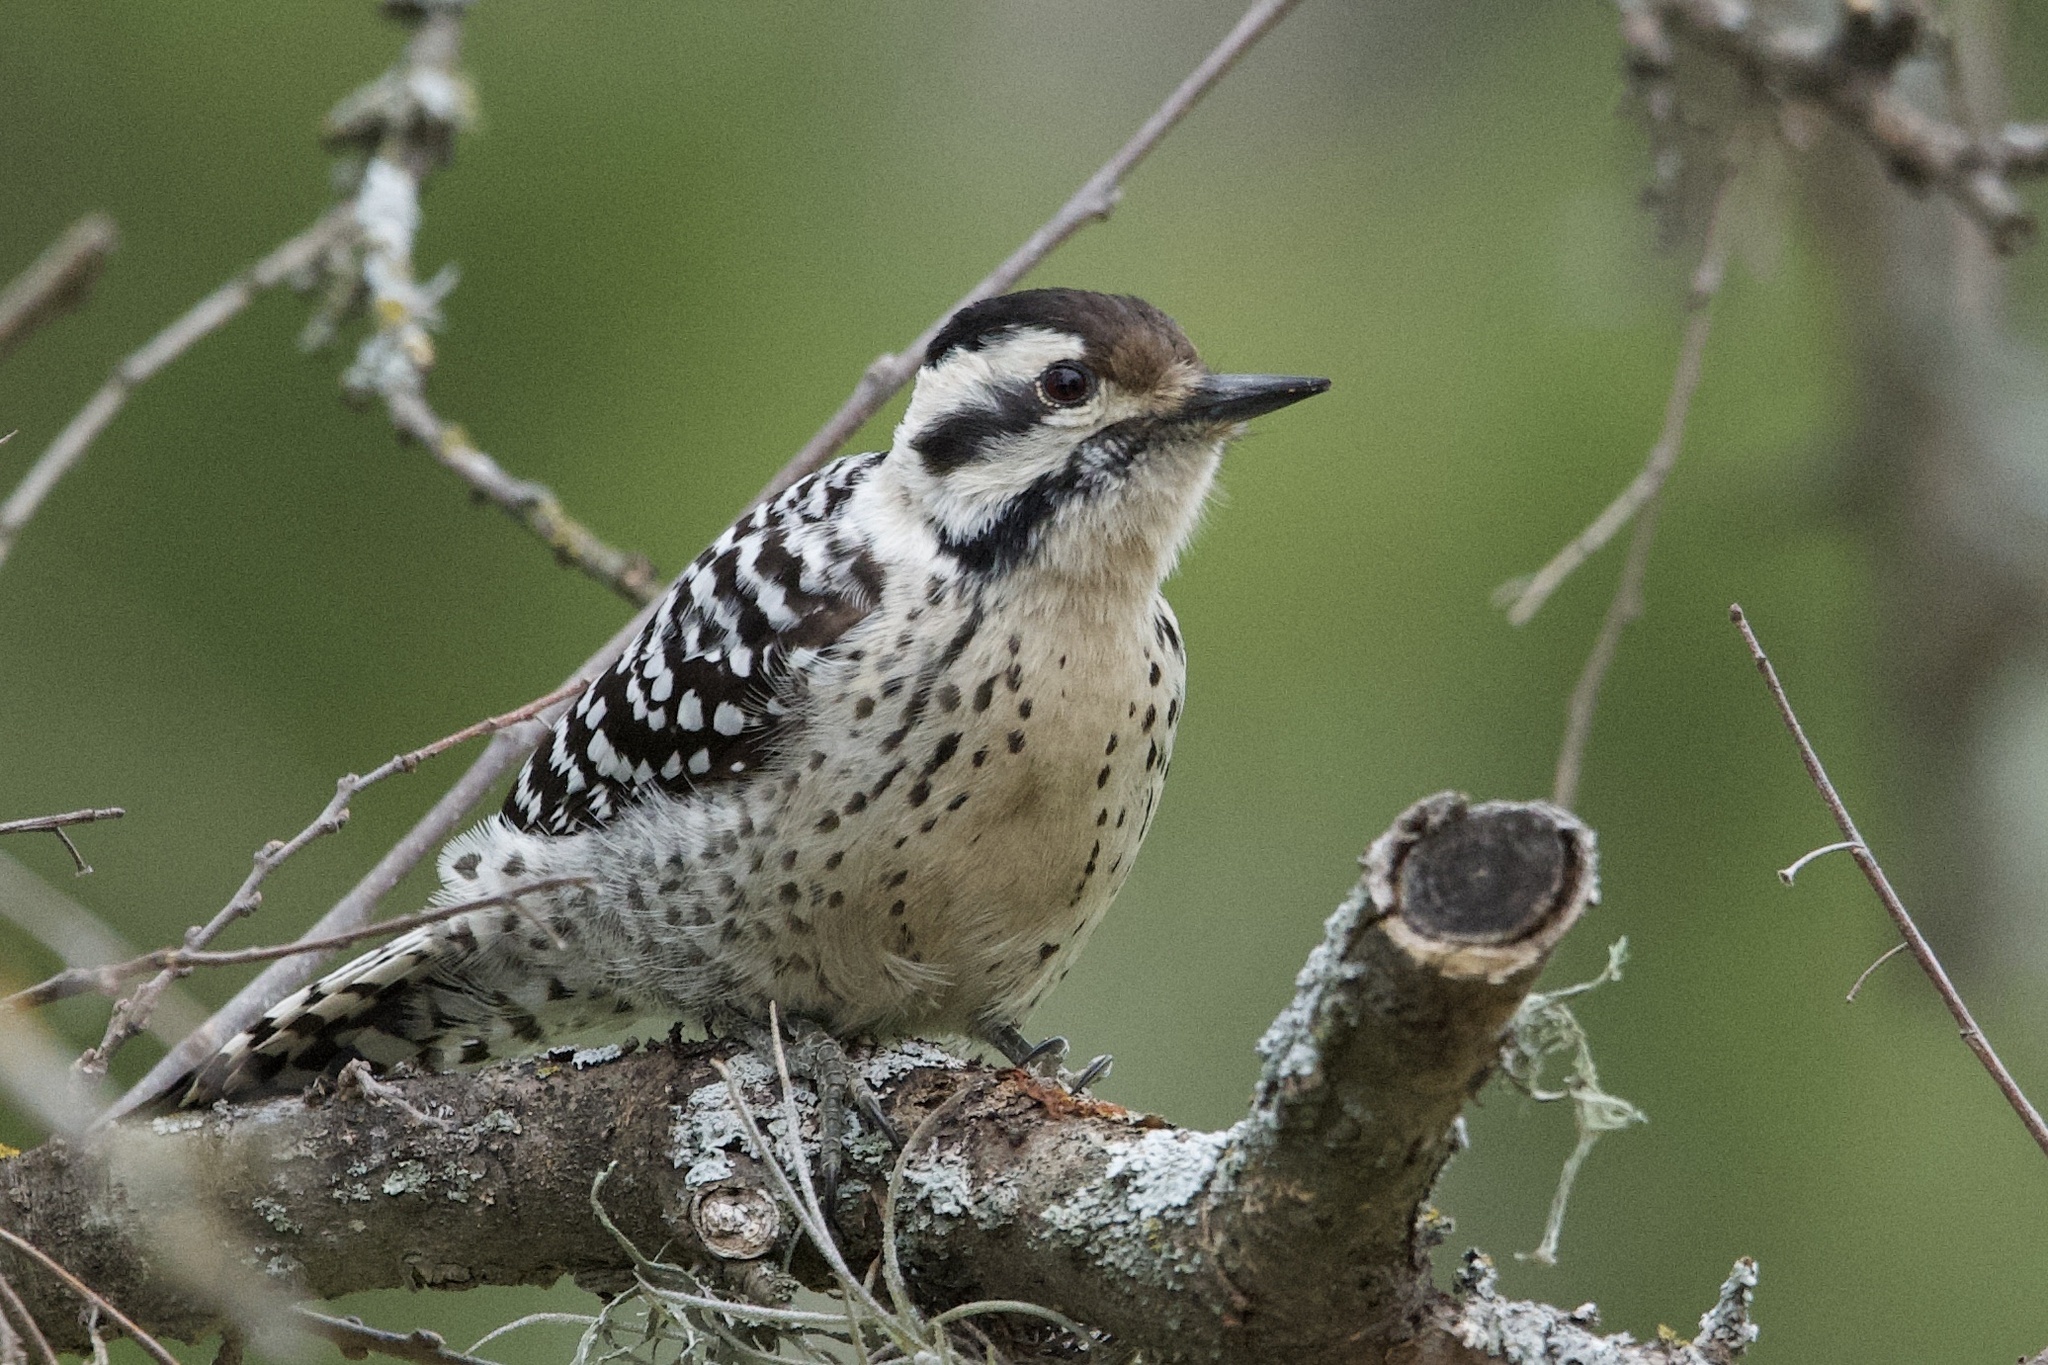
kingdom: Animalia
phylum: Chordata
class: Aves
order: Piciformes
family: Picidae
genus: Dryobates
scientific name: Dryobates scalaris
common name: Ladder-backed woodpecker
